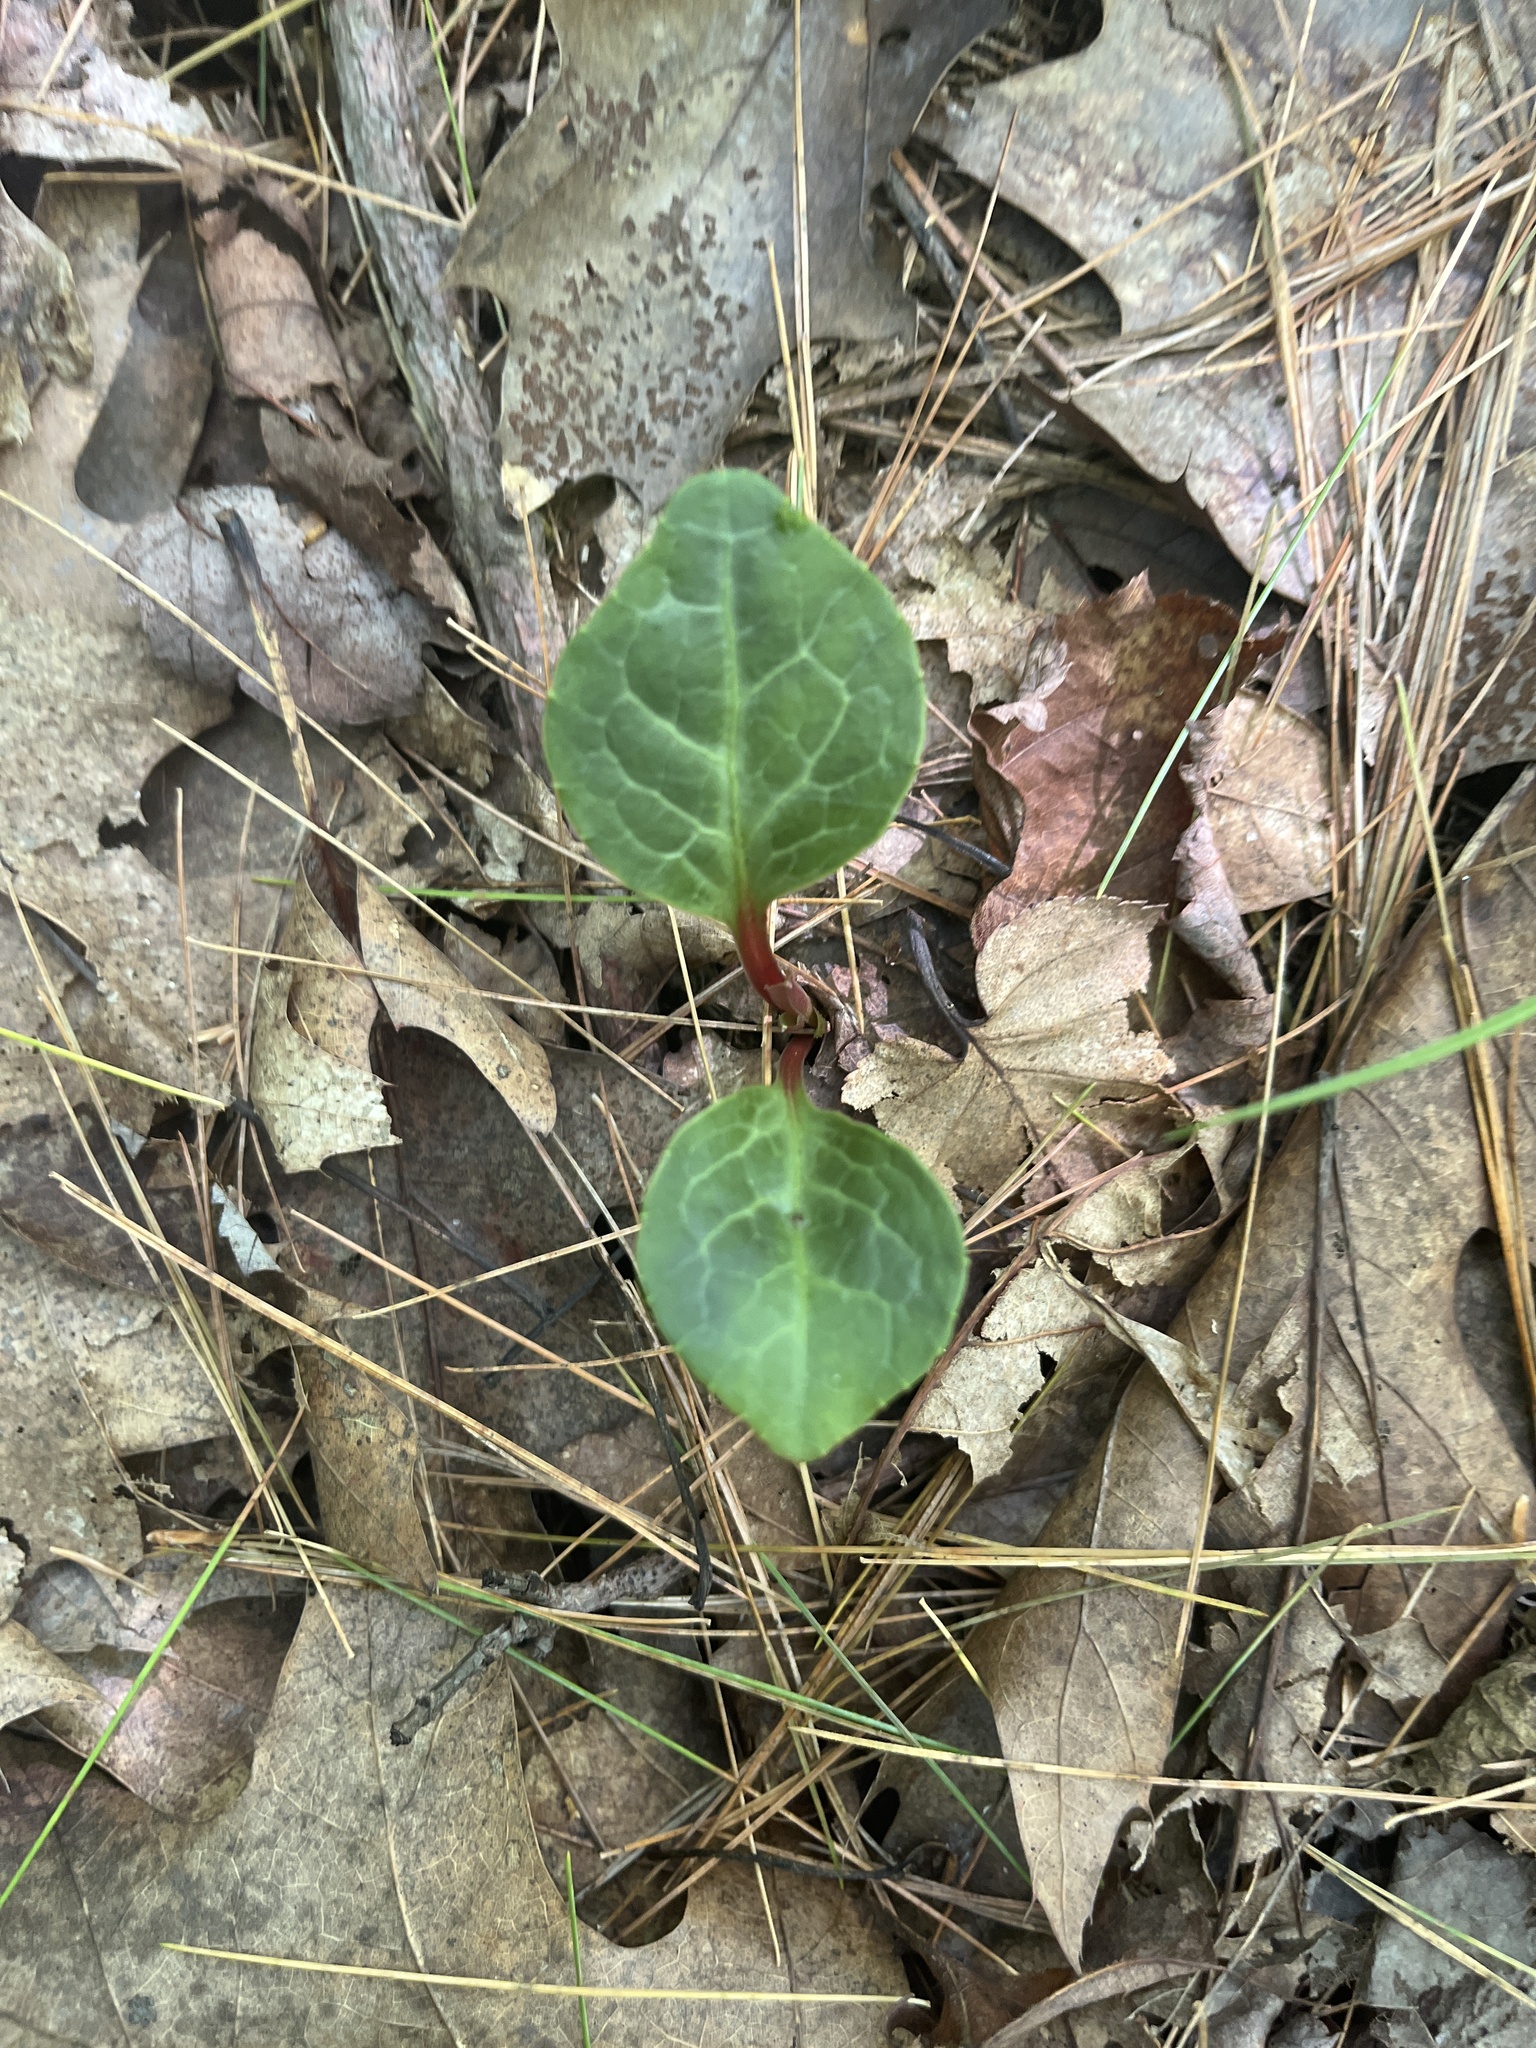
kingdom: Plantae
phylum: Tracheophyta
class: Magnoliopsida
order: Ericales
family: Ericaceae
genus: Pyrola
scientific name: Pyrola americana
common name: American wintergreen
